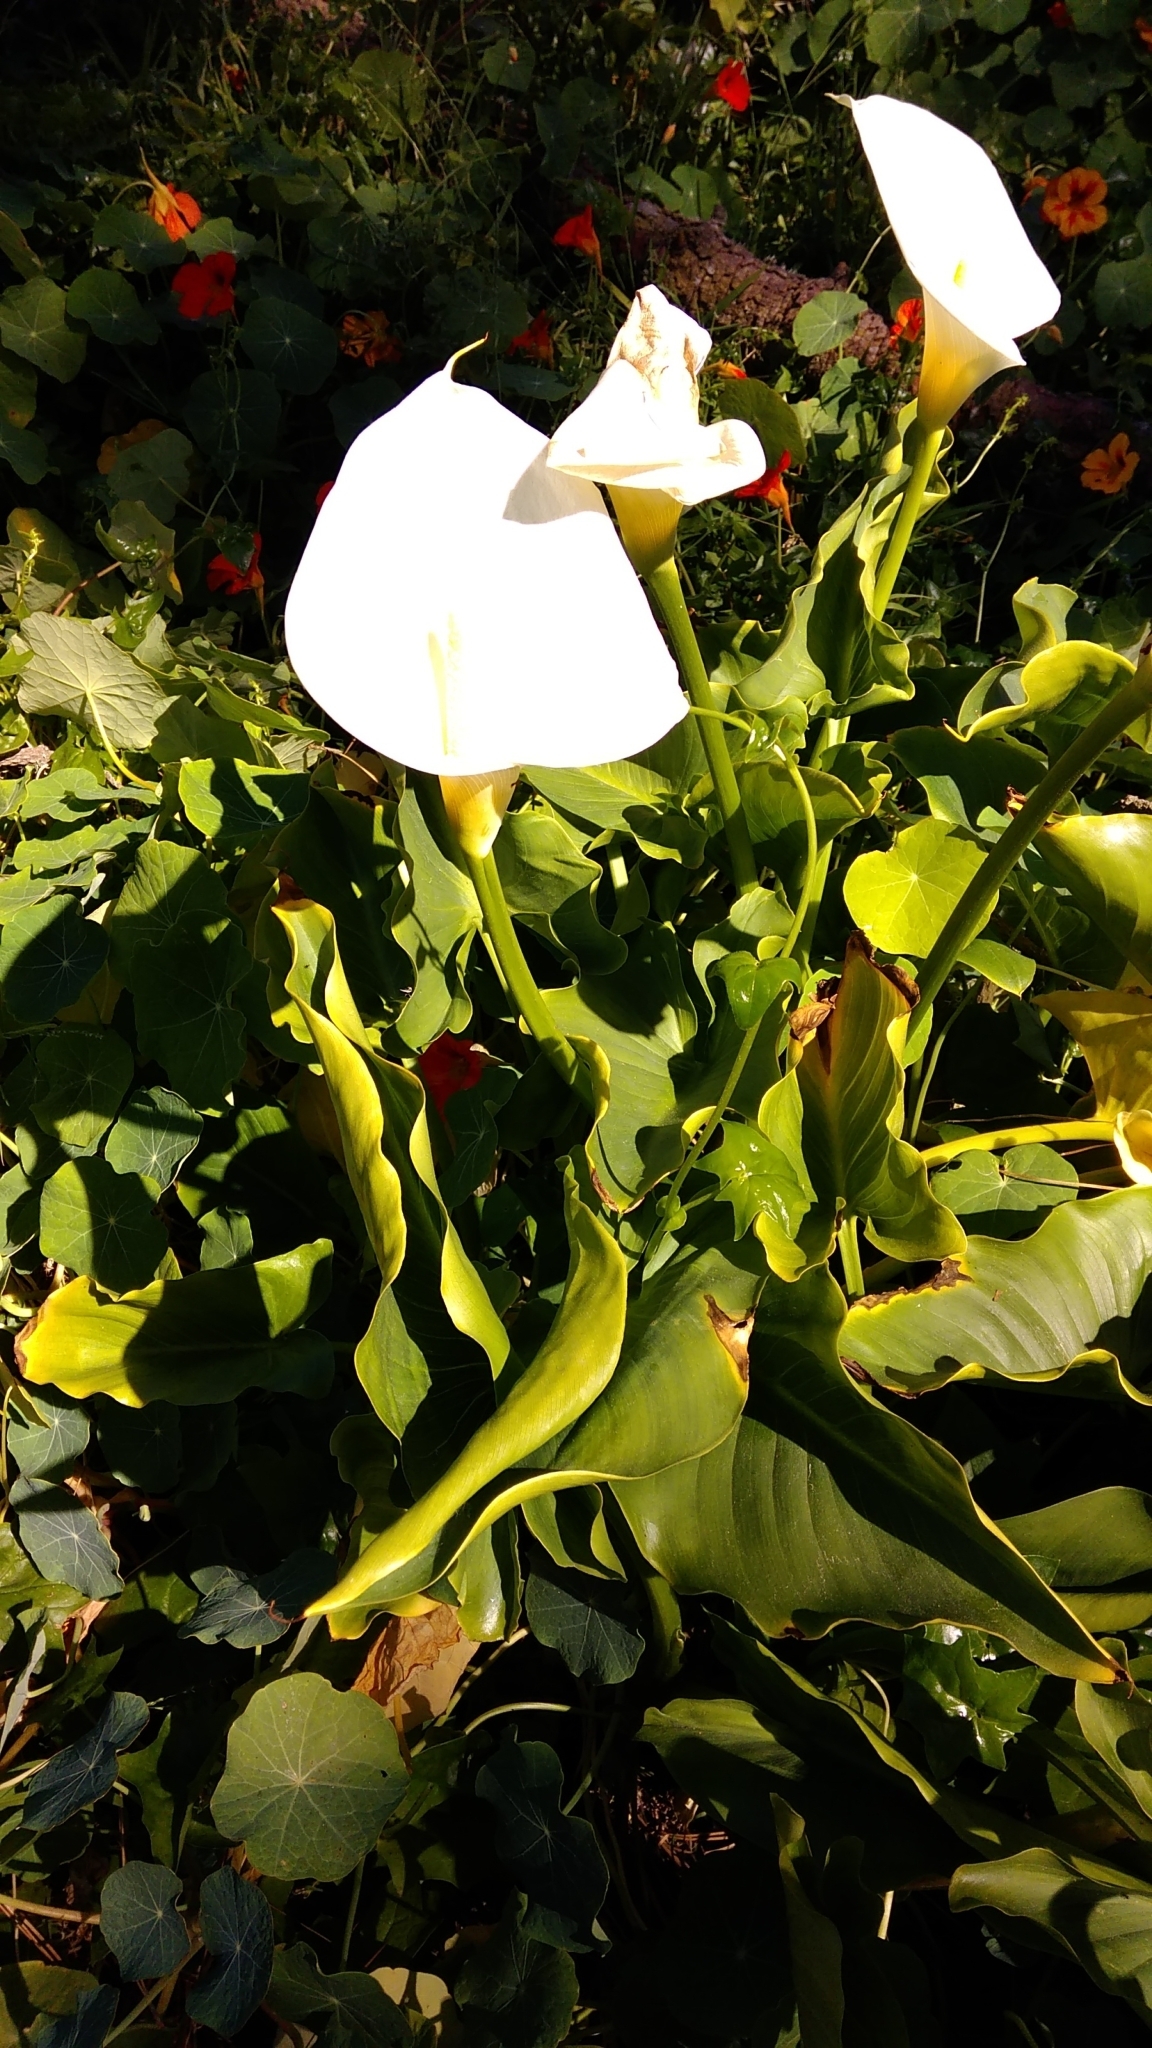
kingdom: Plantae
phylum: Tracheophyta
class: Liliopsida
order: Alismatales
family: Araceae
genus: Zantedeschia
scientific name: Zantedeschia aethiopica
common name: Altar-lily
